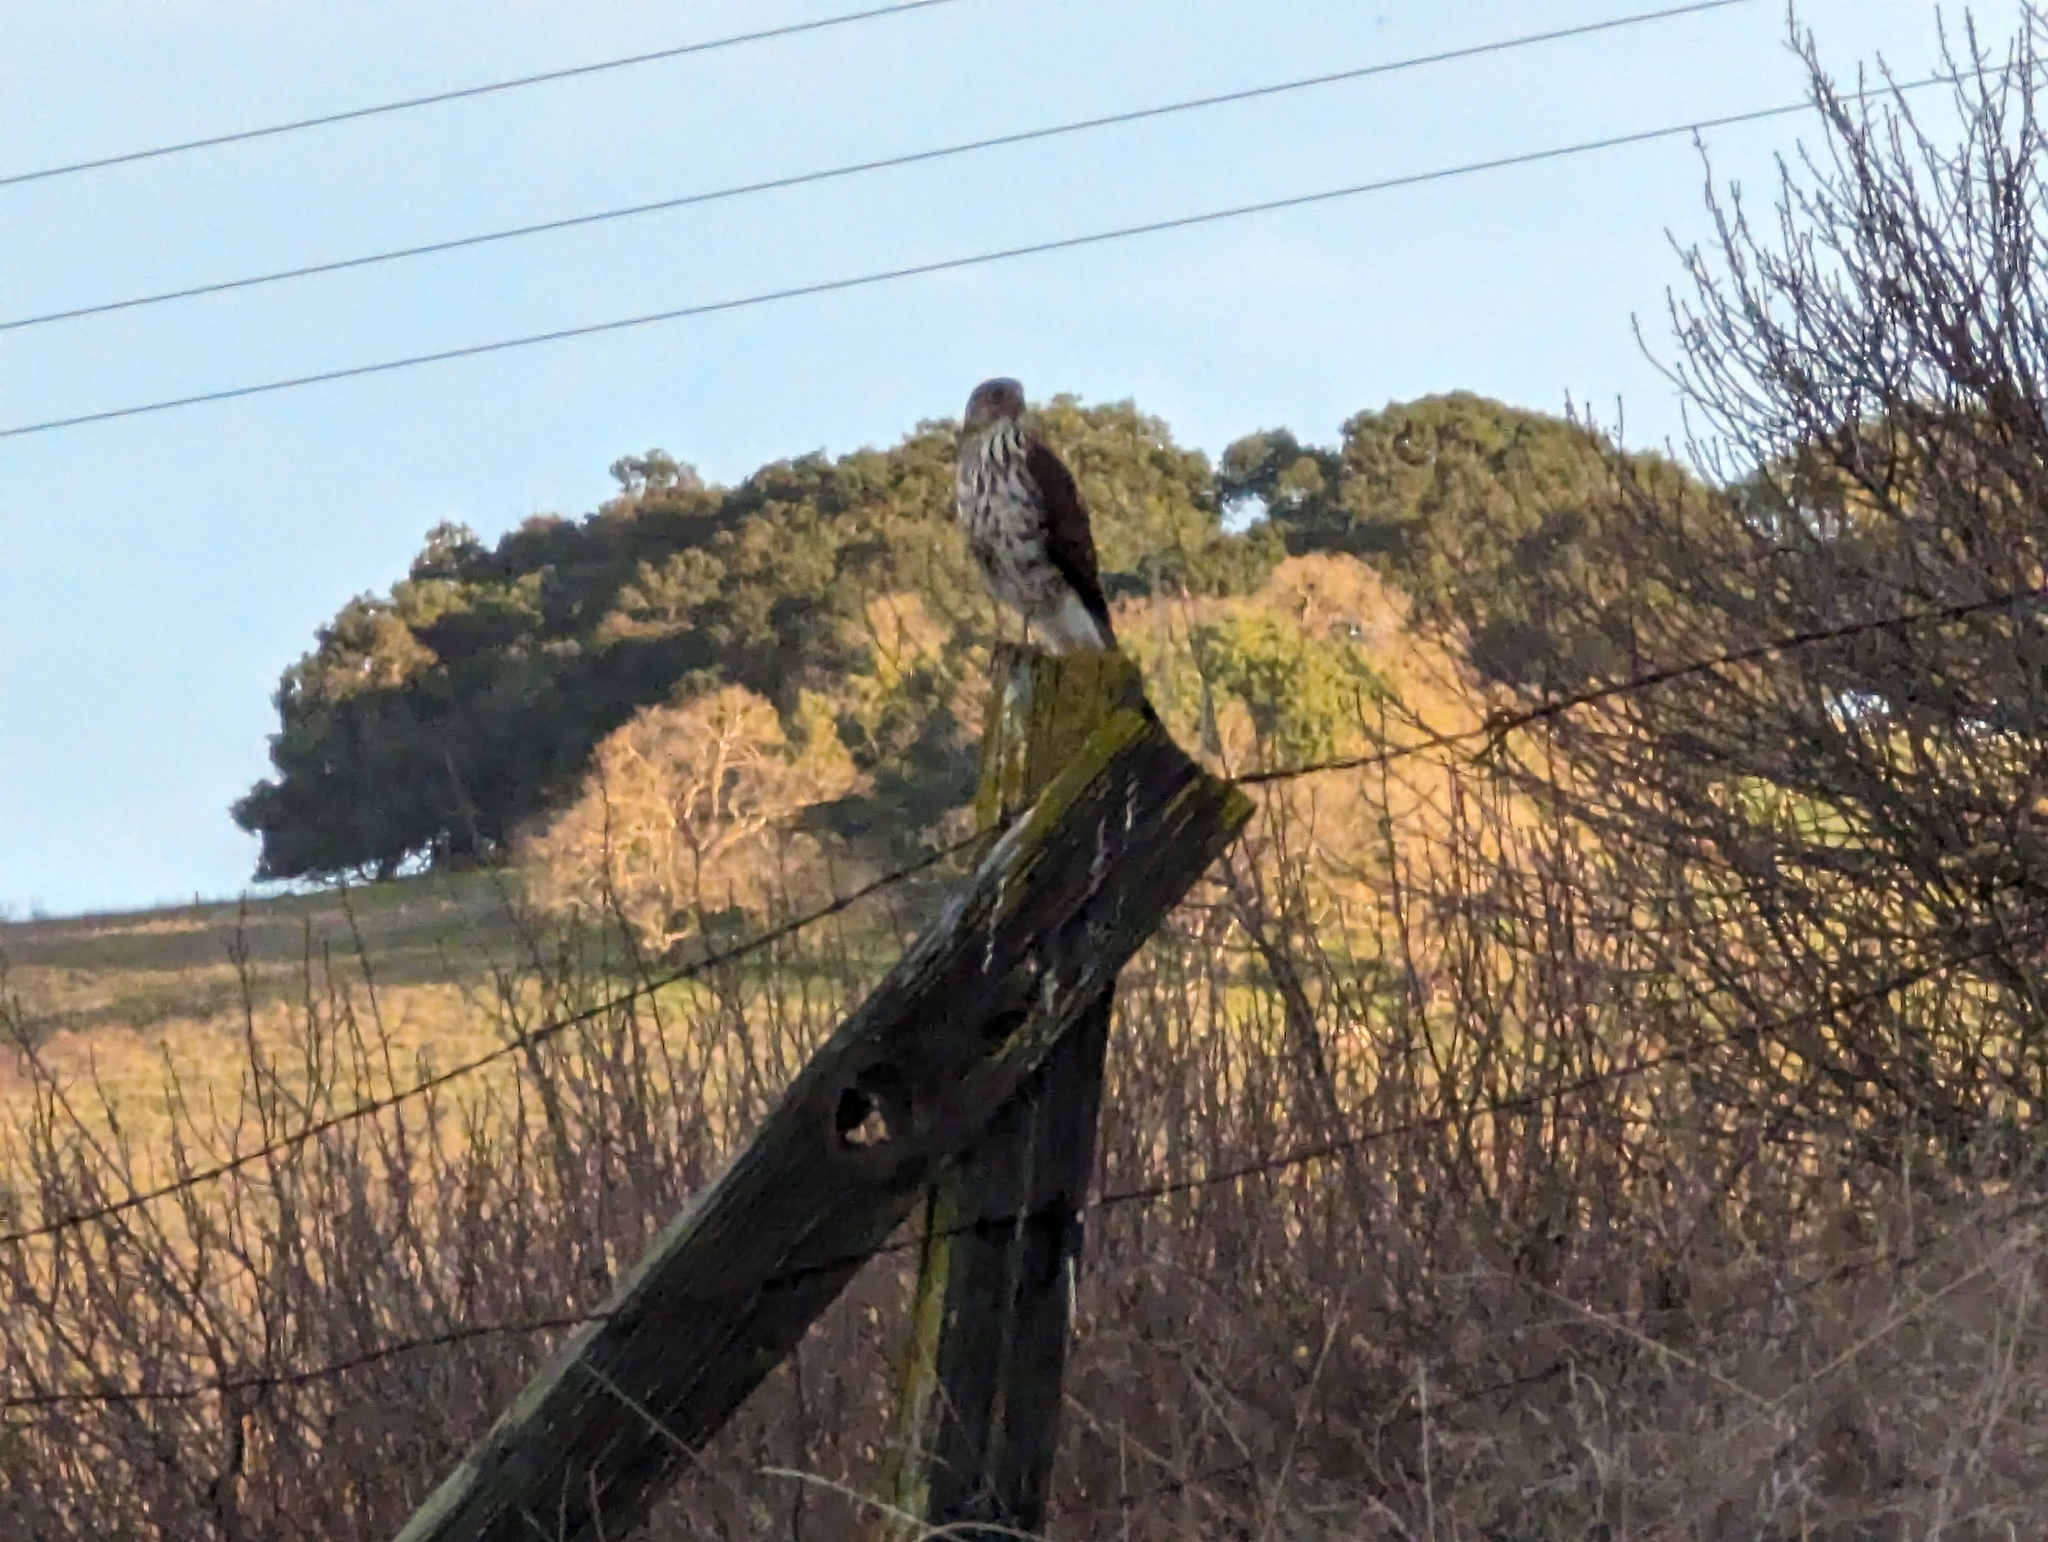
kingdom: Animalia
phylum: Chordata
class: Aves
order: Accipitriformes
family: Accipitridae
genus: Accipiter
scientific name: Accipiter cooperii
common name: Cooper's hawk
